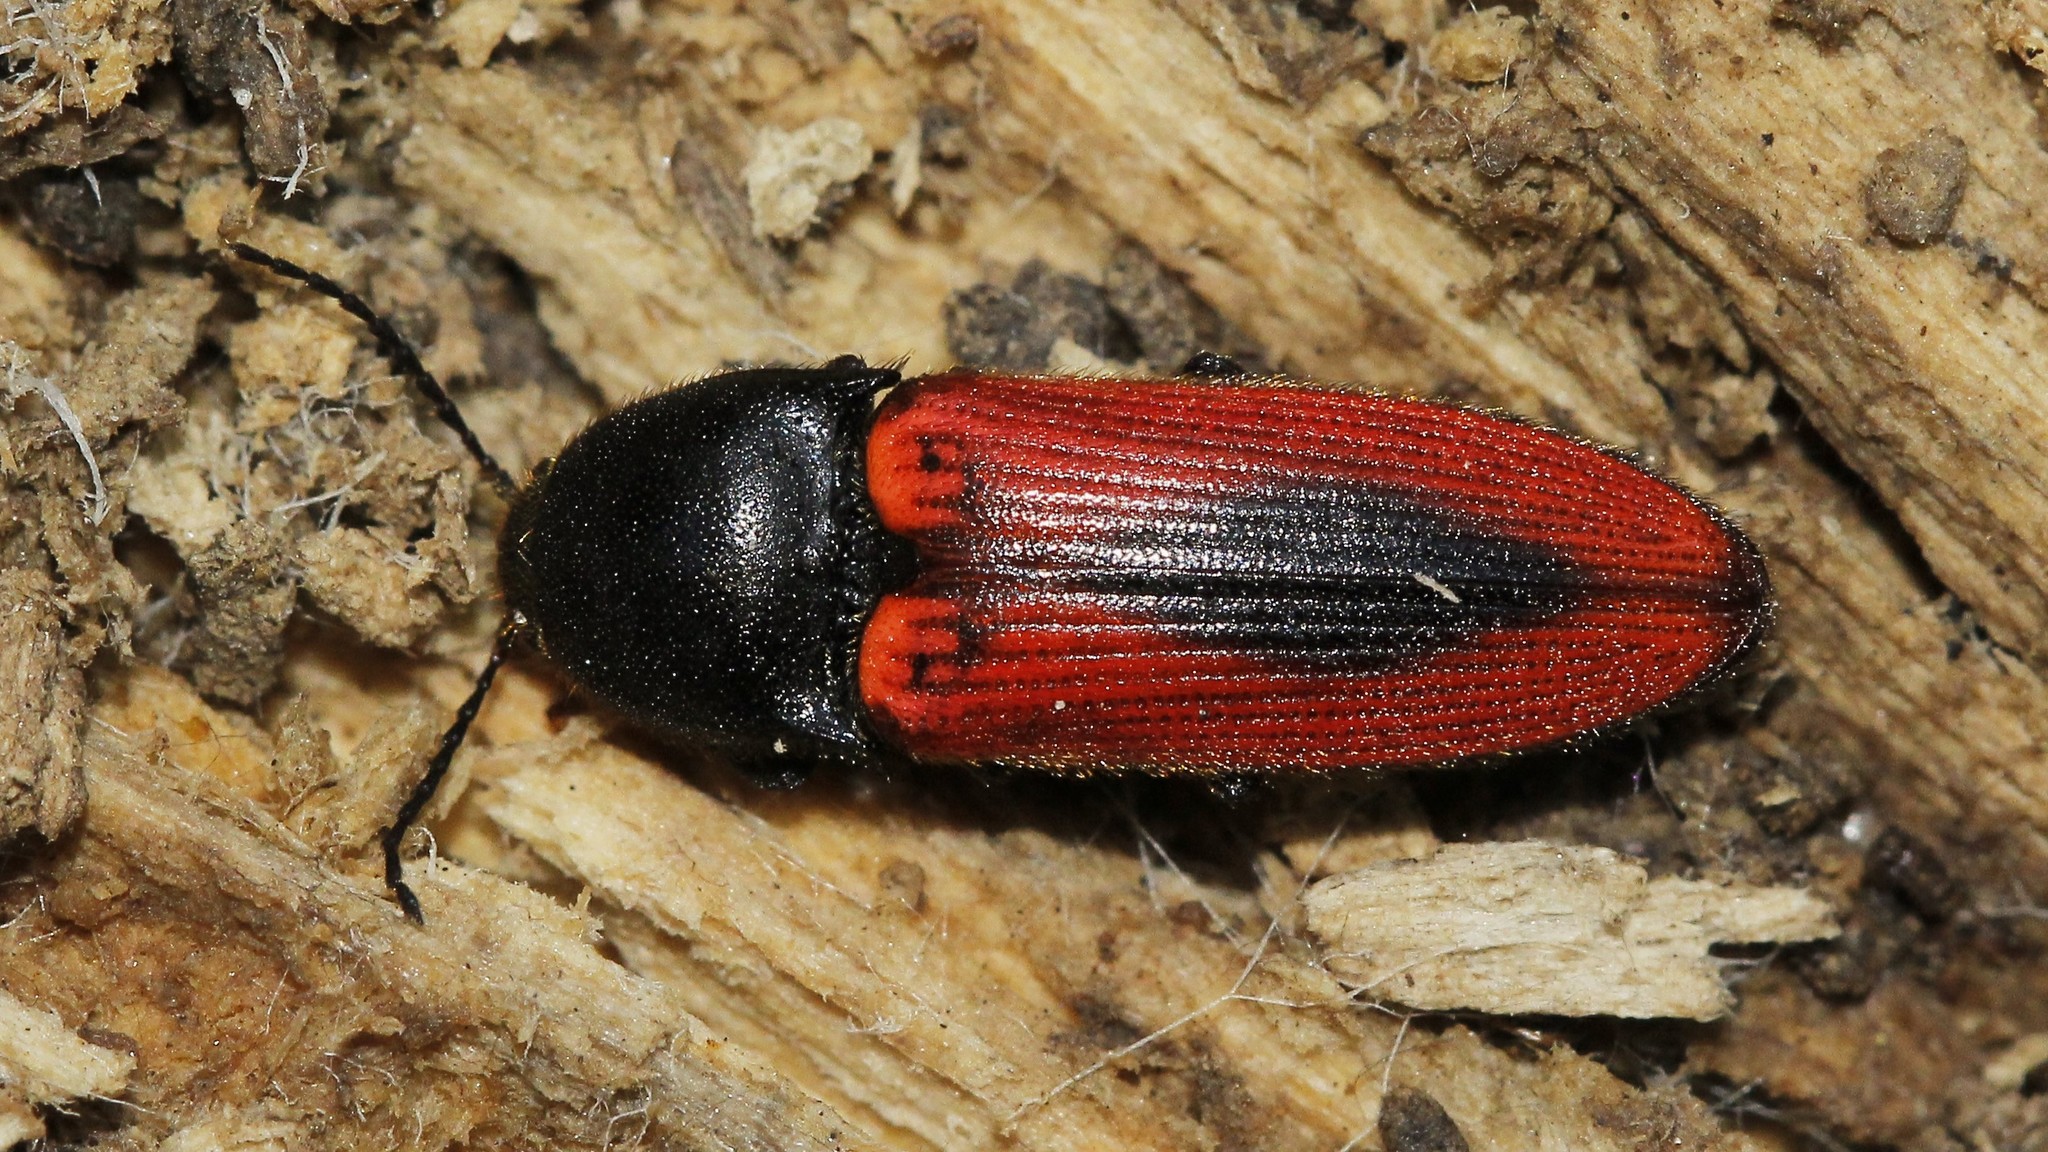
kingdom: Animalia
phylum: Arthropoda
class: Insecta
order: Coleoptera
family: Elateridae
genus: Ampedus
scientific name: Ampedus sanguinolentus
